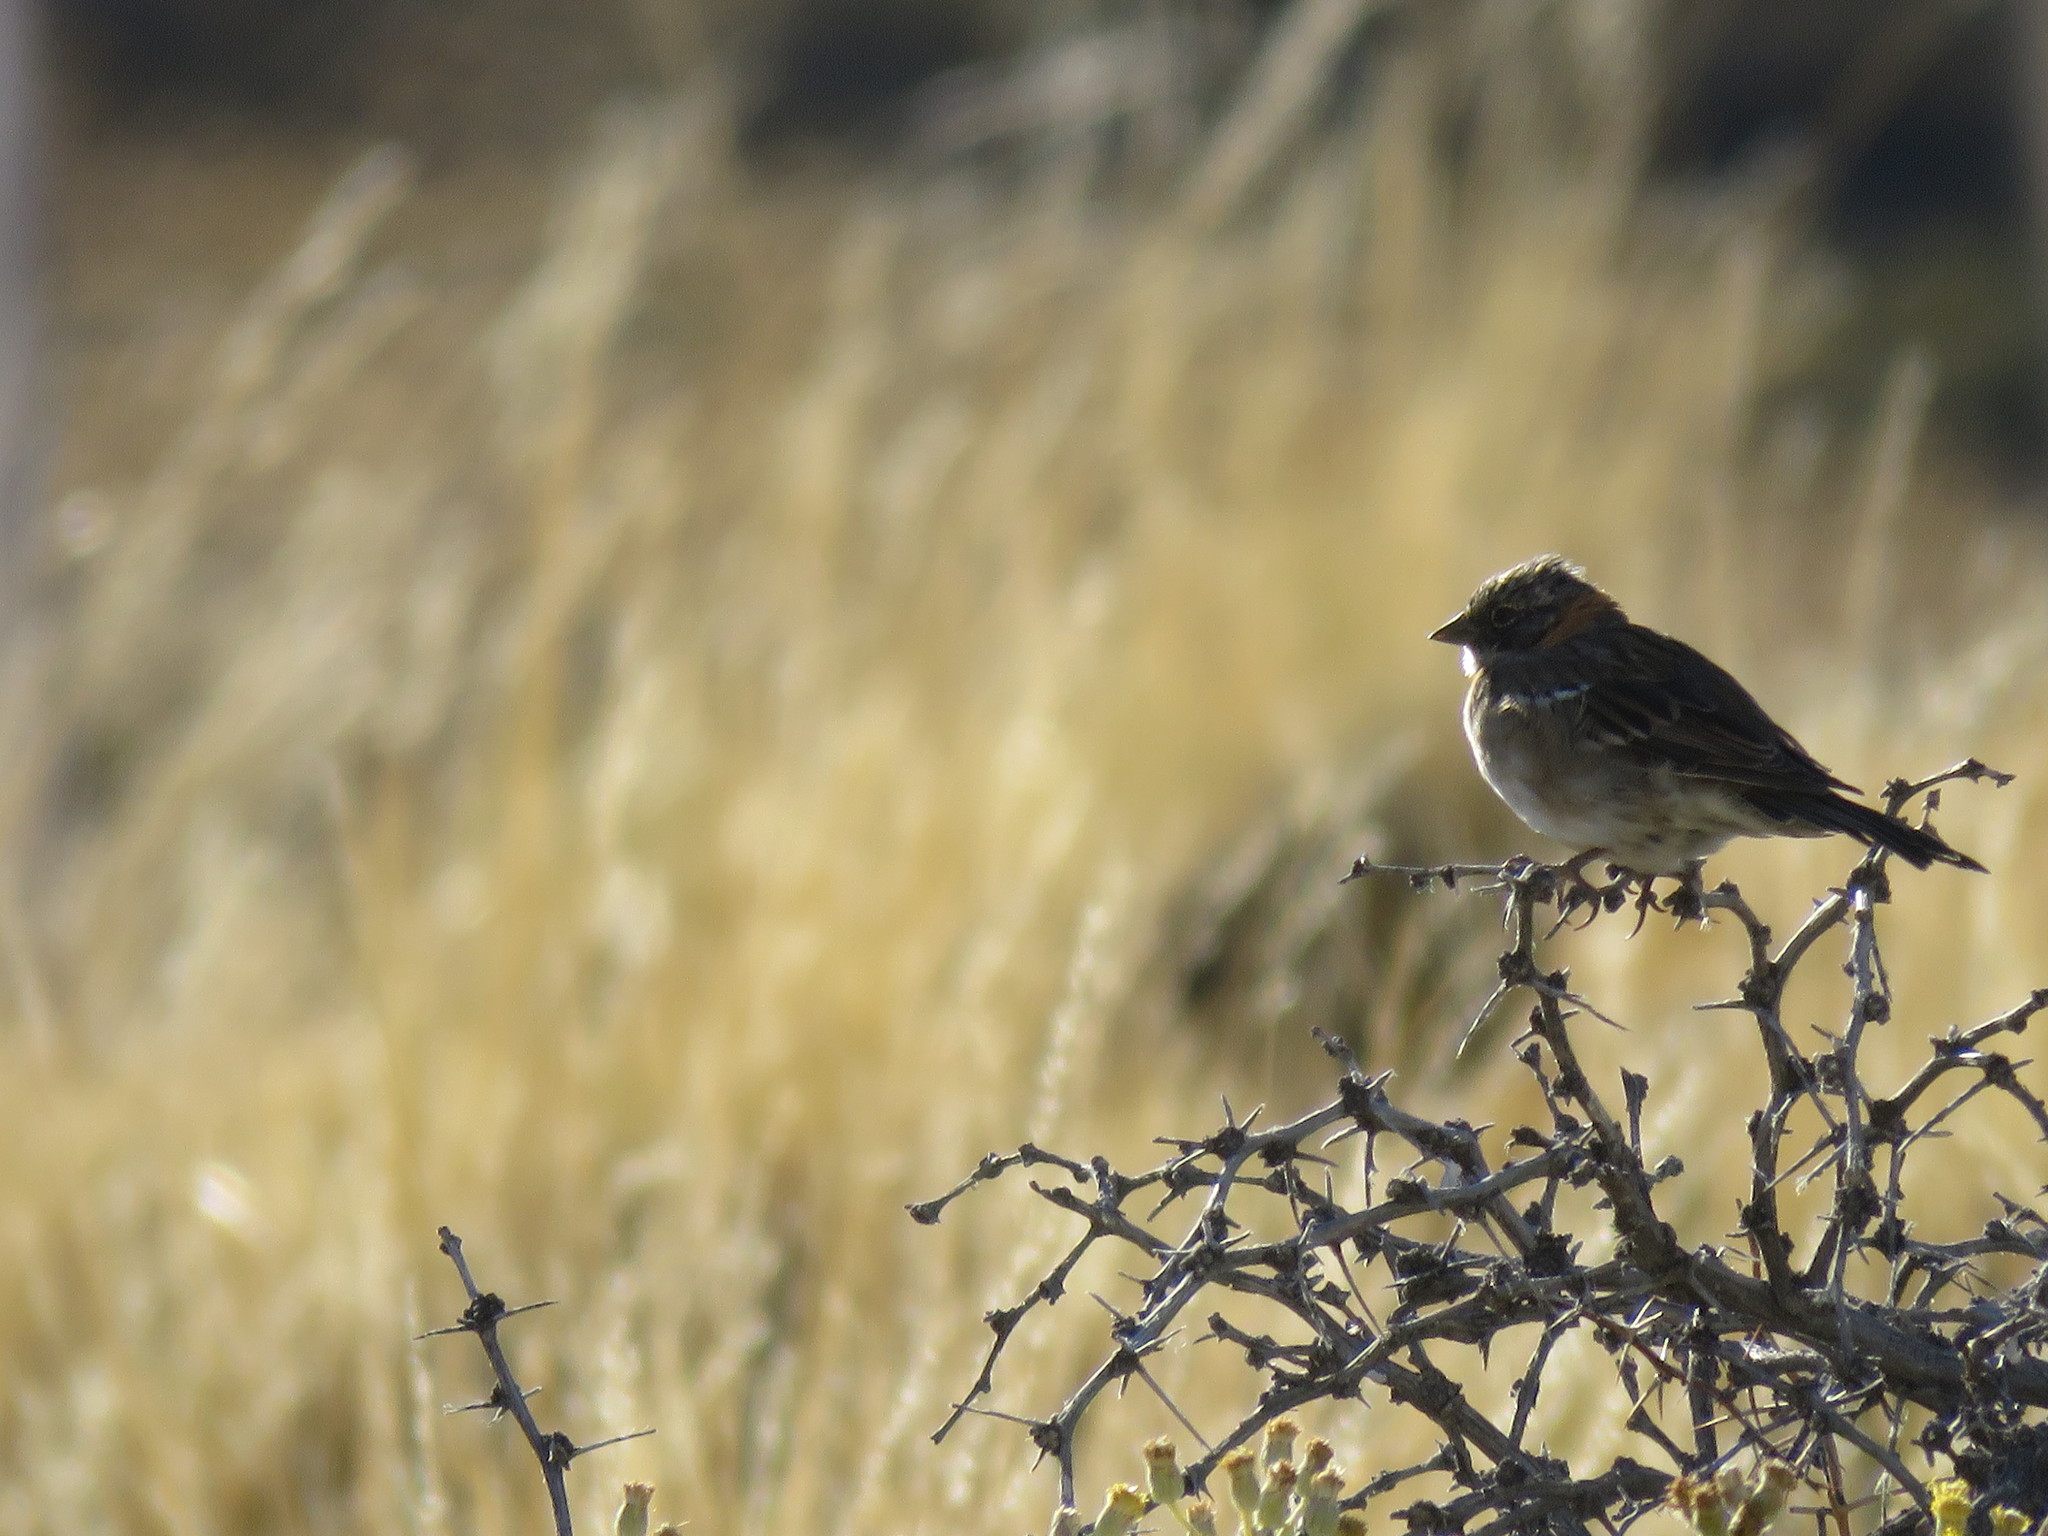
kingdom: Animalia
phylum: Chordata
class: Aves
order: Passeriformes
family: Passerellidae
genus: Zonotrichia
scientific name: Zonotrichia capensis
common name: Rufous-collared sparrow
